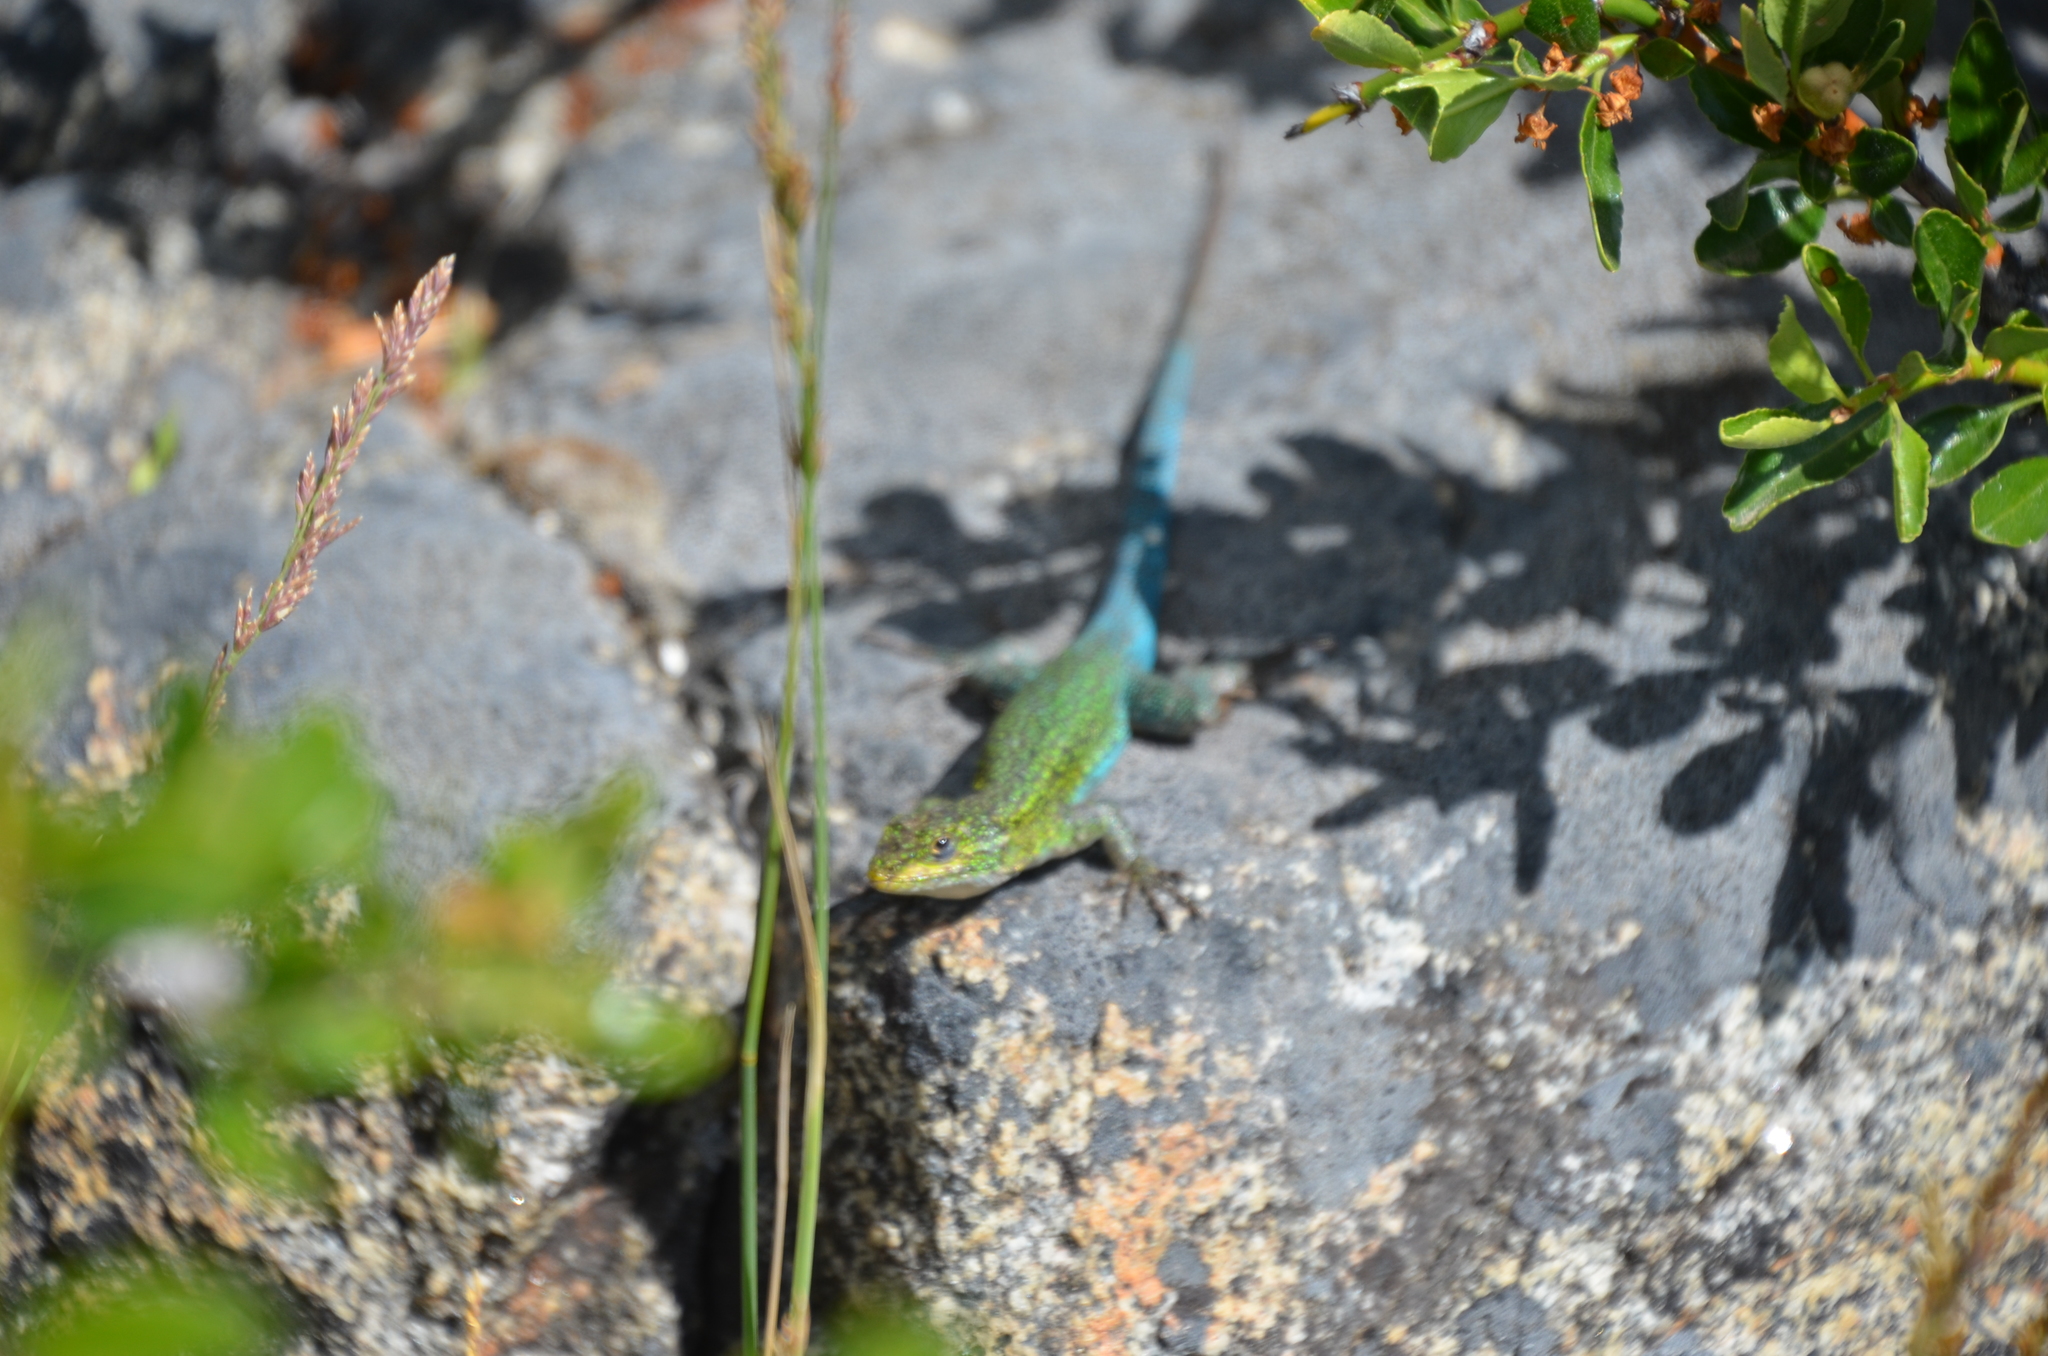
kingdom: Animalia
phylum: Chordata
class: Squamata
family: Liolaemidae
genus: Liolaemus
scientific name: Liolaemus tenuis
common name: Thin tree iguana
